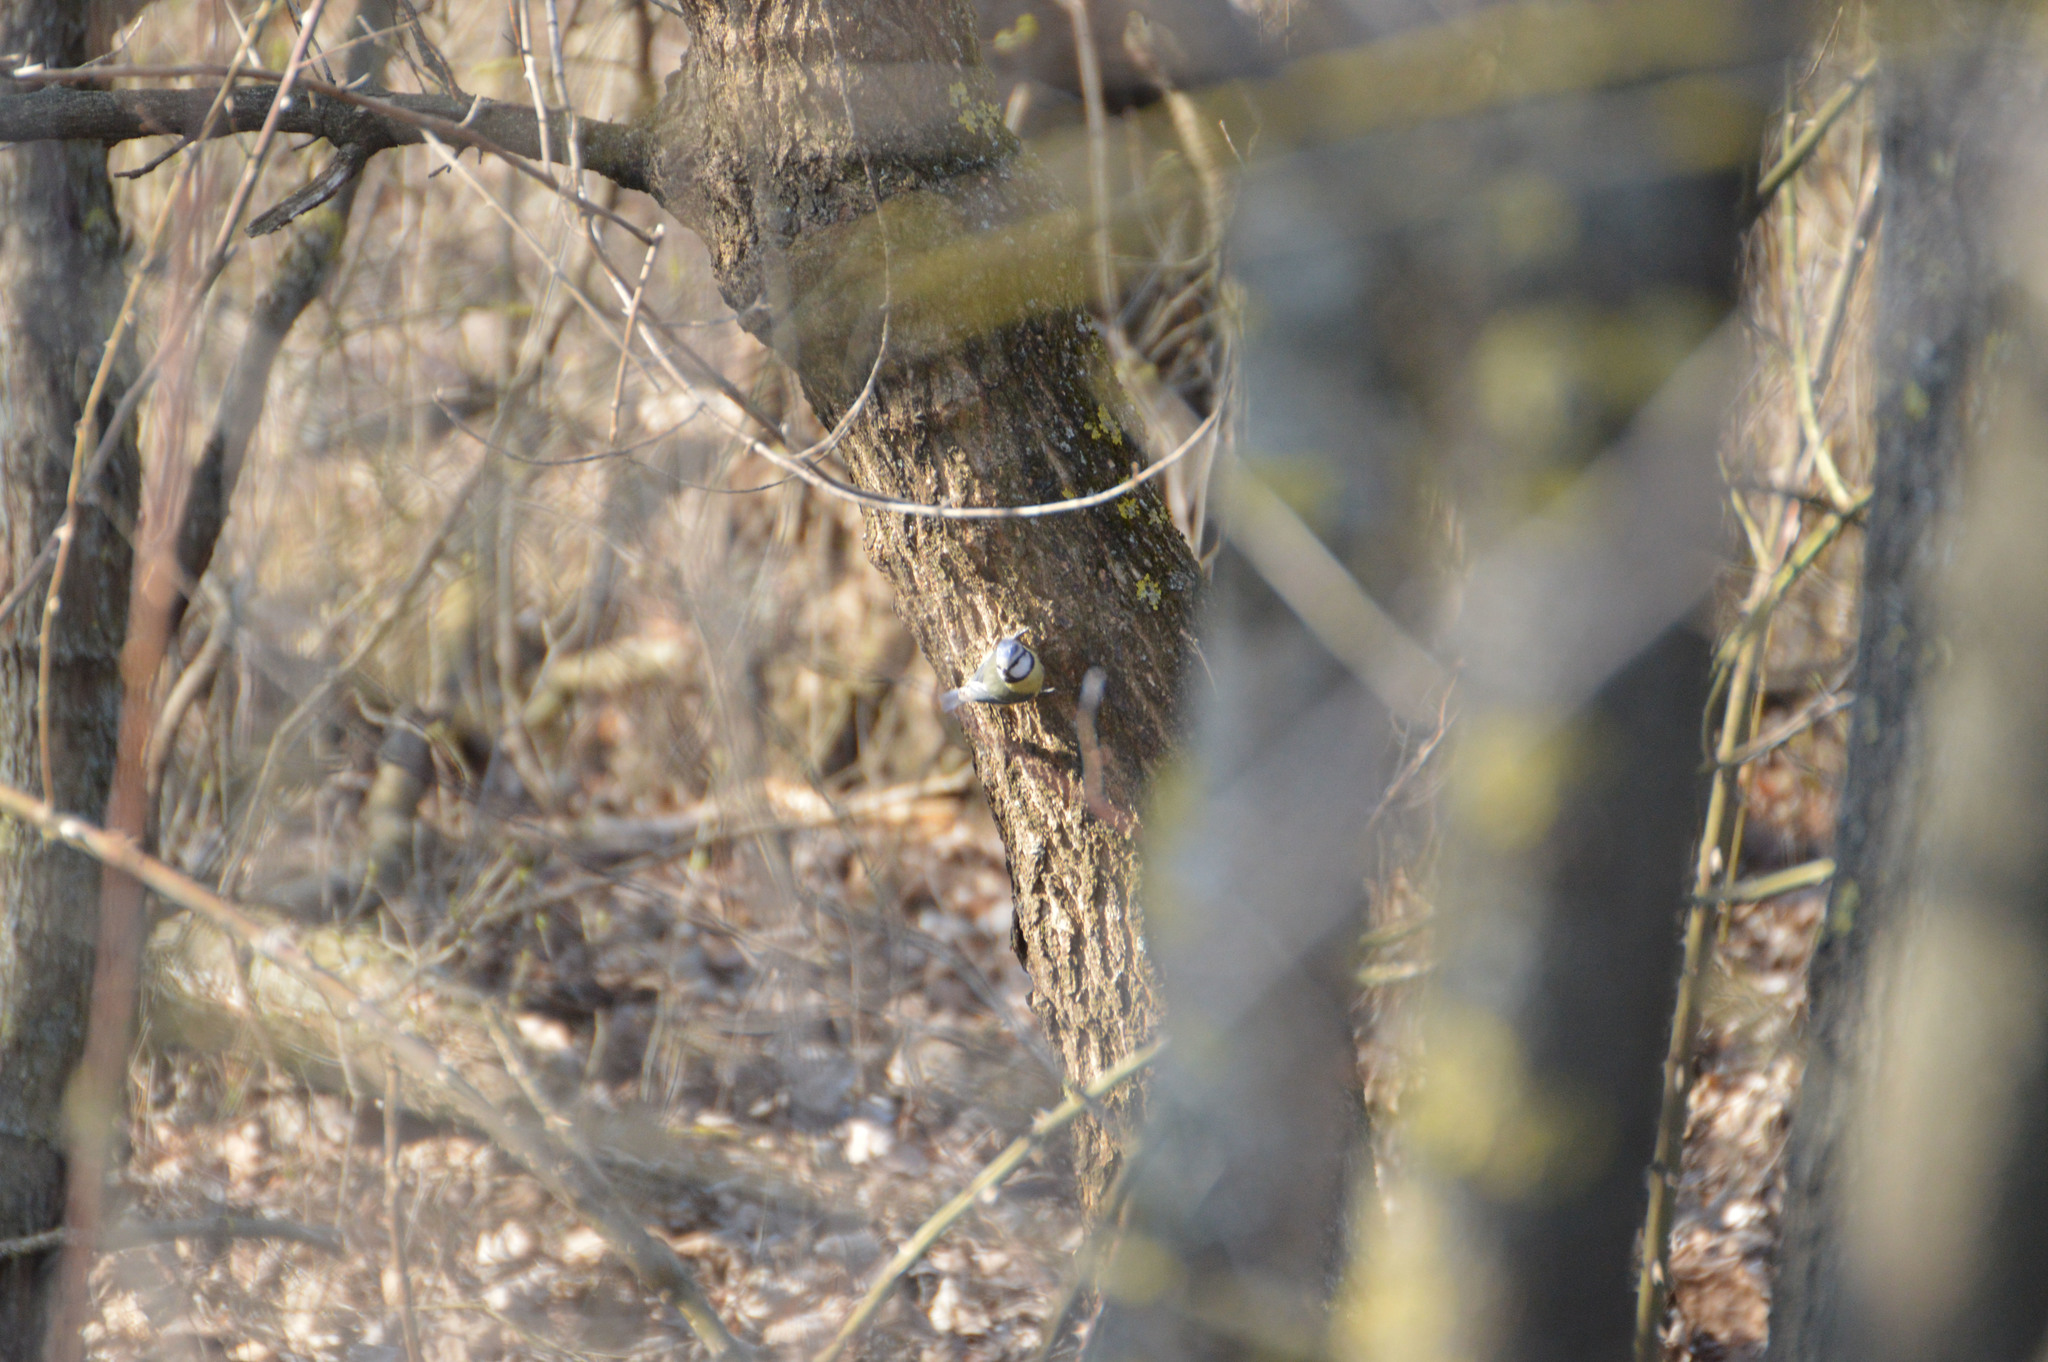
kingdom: Animalia
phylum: Chordata
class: Aves
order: Passeriformes
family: Paridae
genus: Cyanistes
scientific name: Cyanistes caeruleus
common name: Eurasian blue tit
